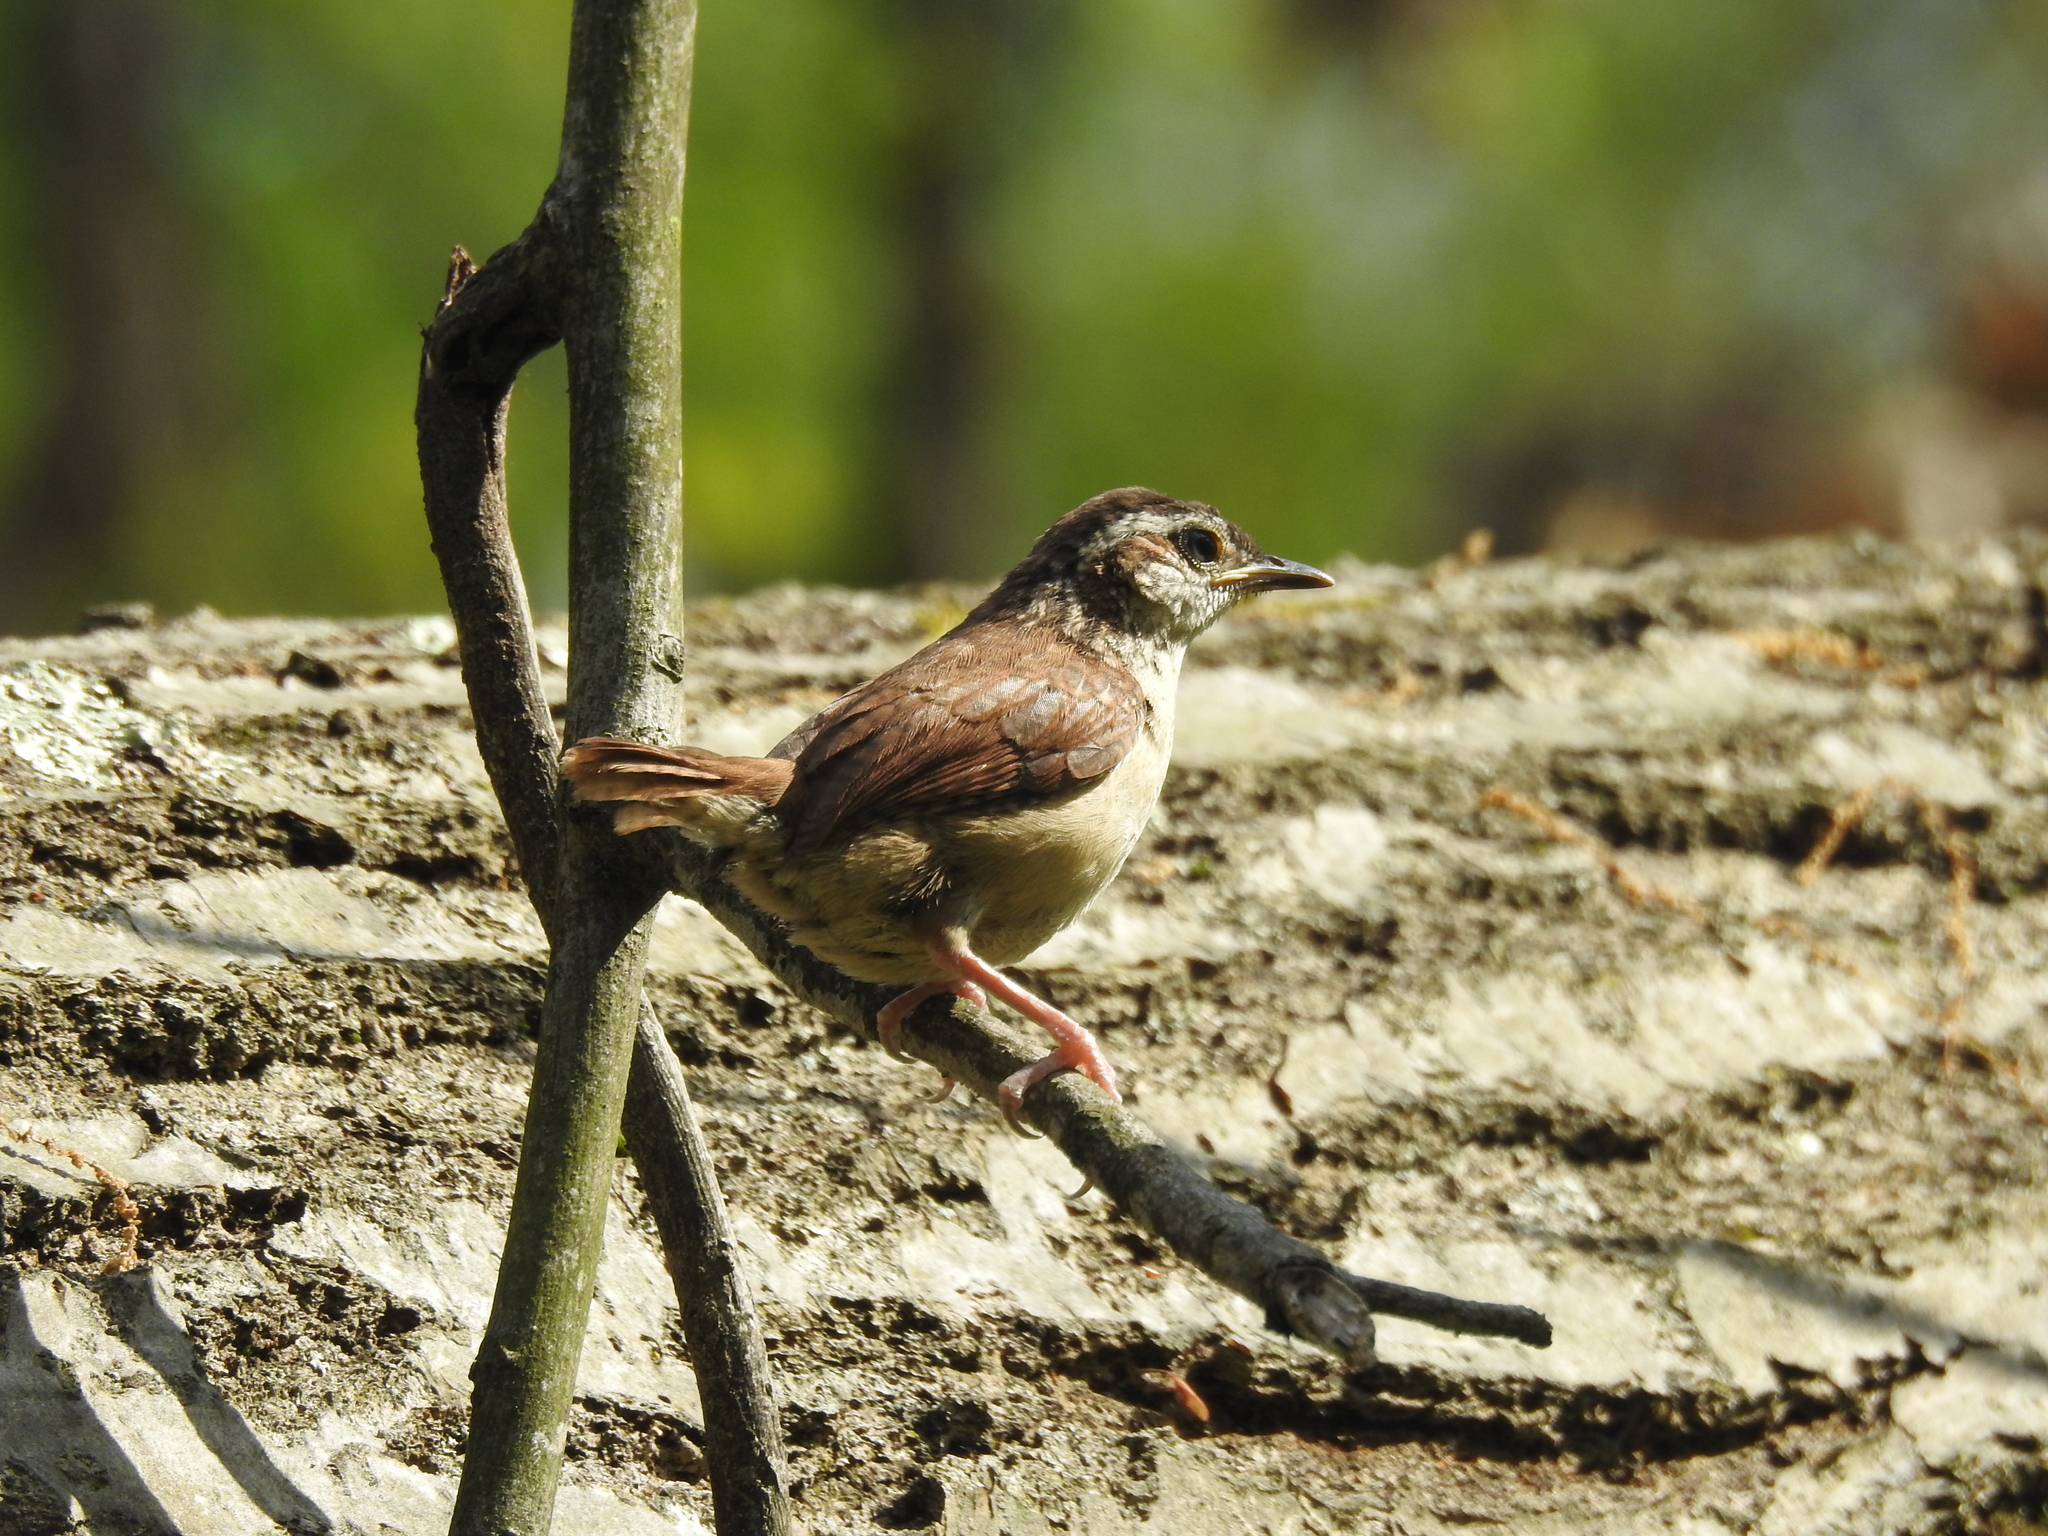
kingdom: Animalia
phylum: Chordata
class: Aves
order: Passeriformes
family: Troglodytidae
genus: Thryothorus
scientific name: Thryothorus ludovicianus
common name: Carolina wren
